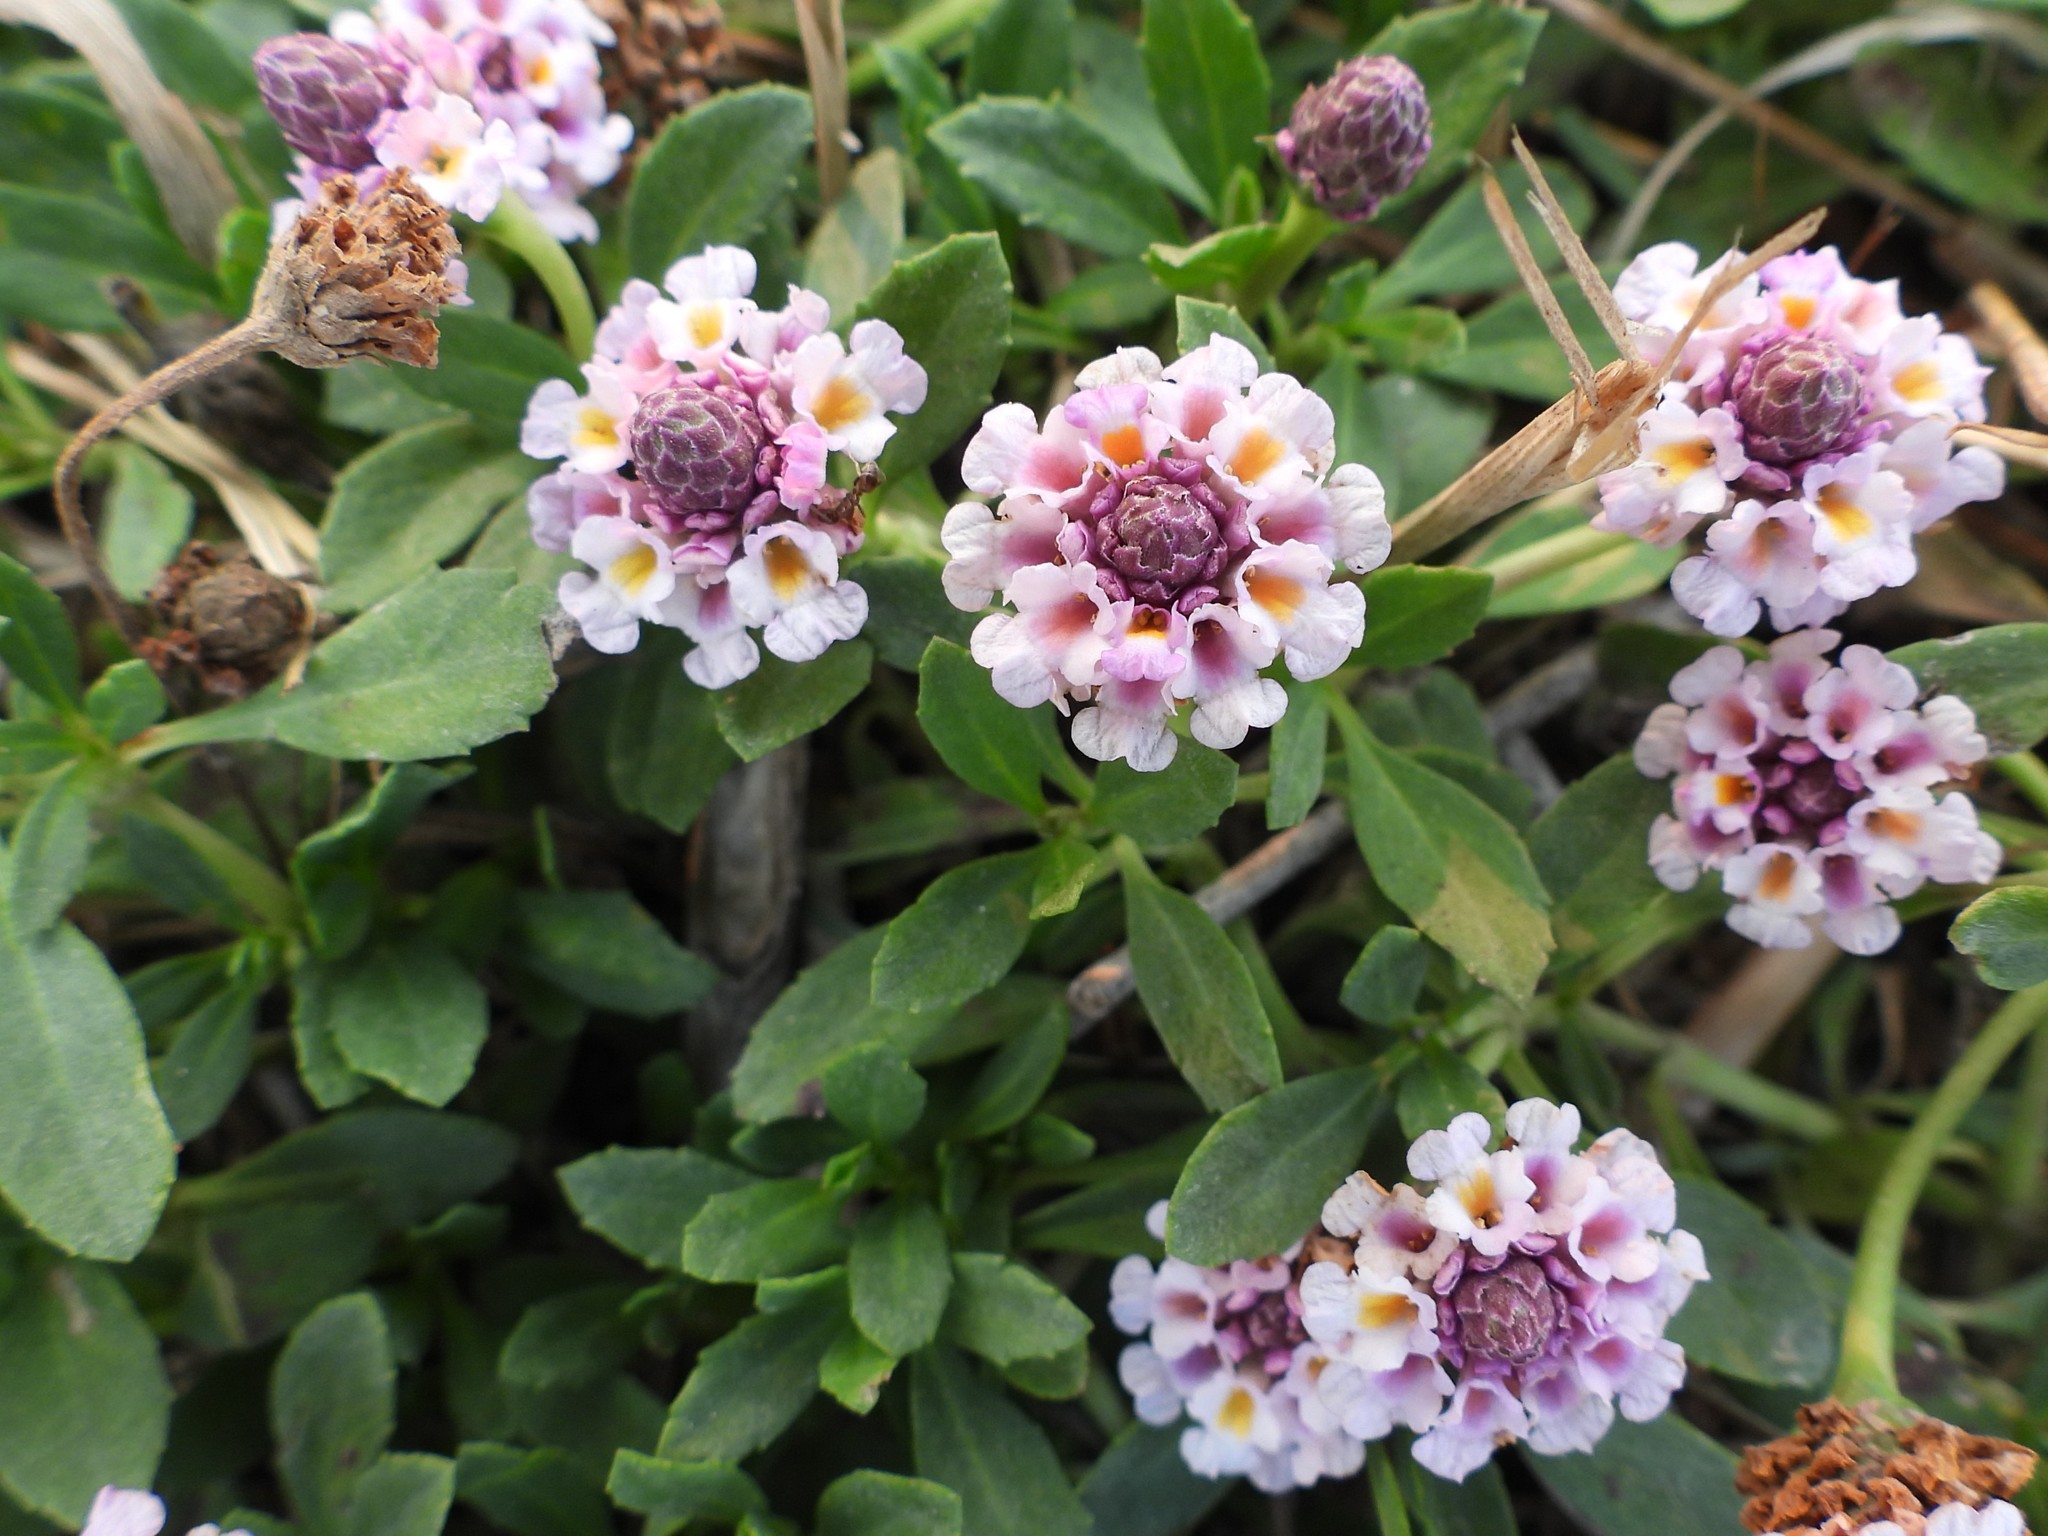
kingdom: Plantae
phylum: Tracheophyta
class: Magnoliopsida
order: Lamiales
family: Verbenaceae
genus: Phyla
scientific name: Phyla nodiflora
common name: Frogfruit
